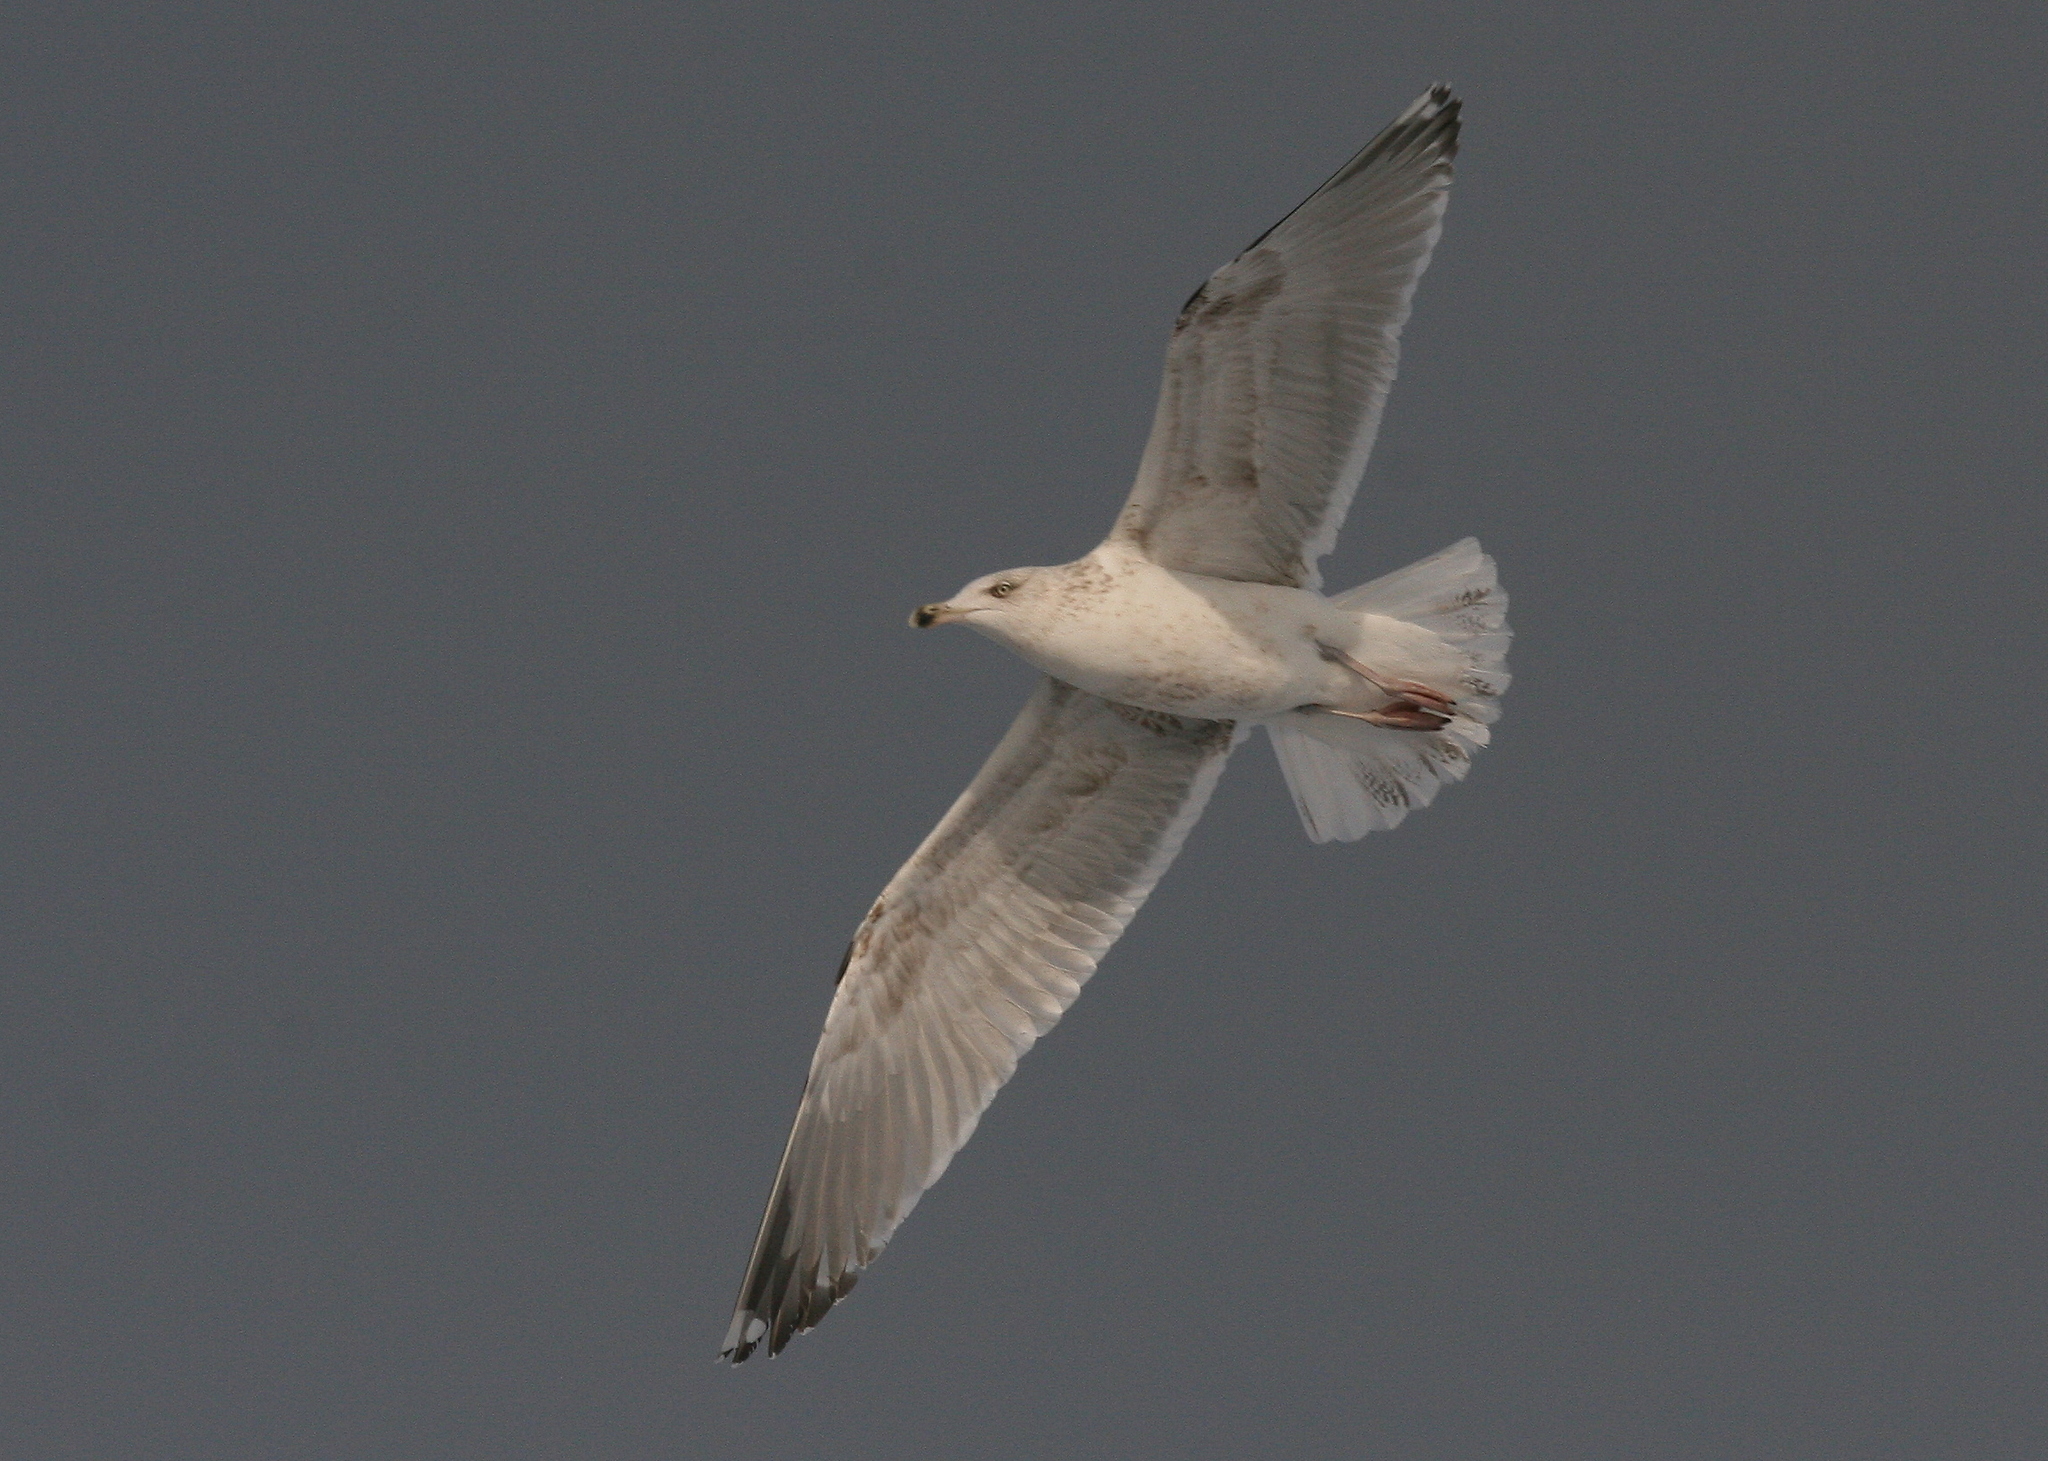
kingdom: Animalia
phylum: Chordata
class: Aves
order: Charadriiformes
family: Laridae
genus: Larus
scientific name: Larus argentatus
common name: Herring gull
